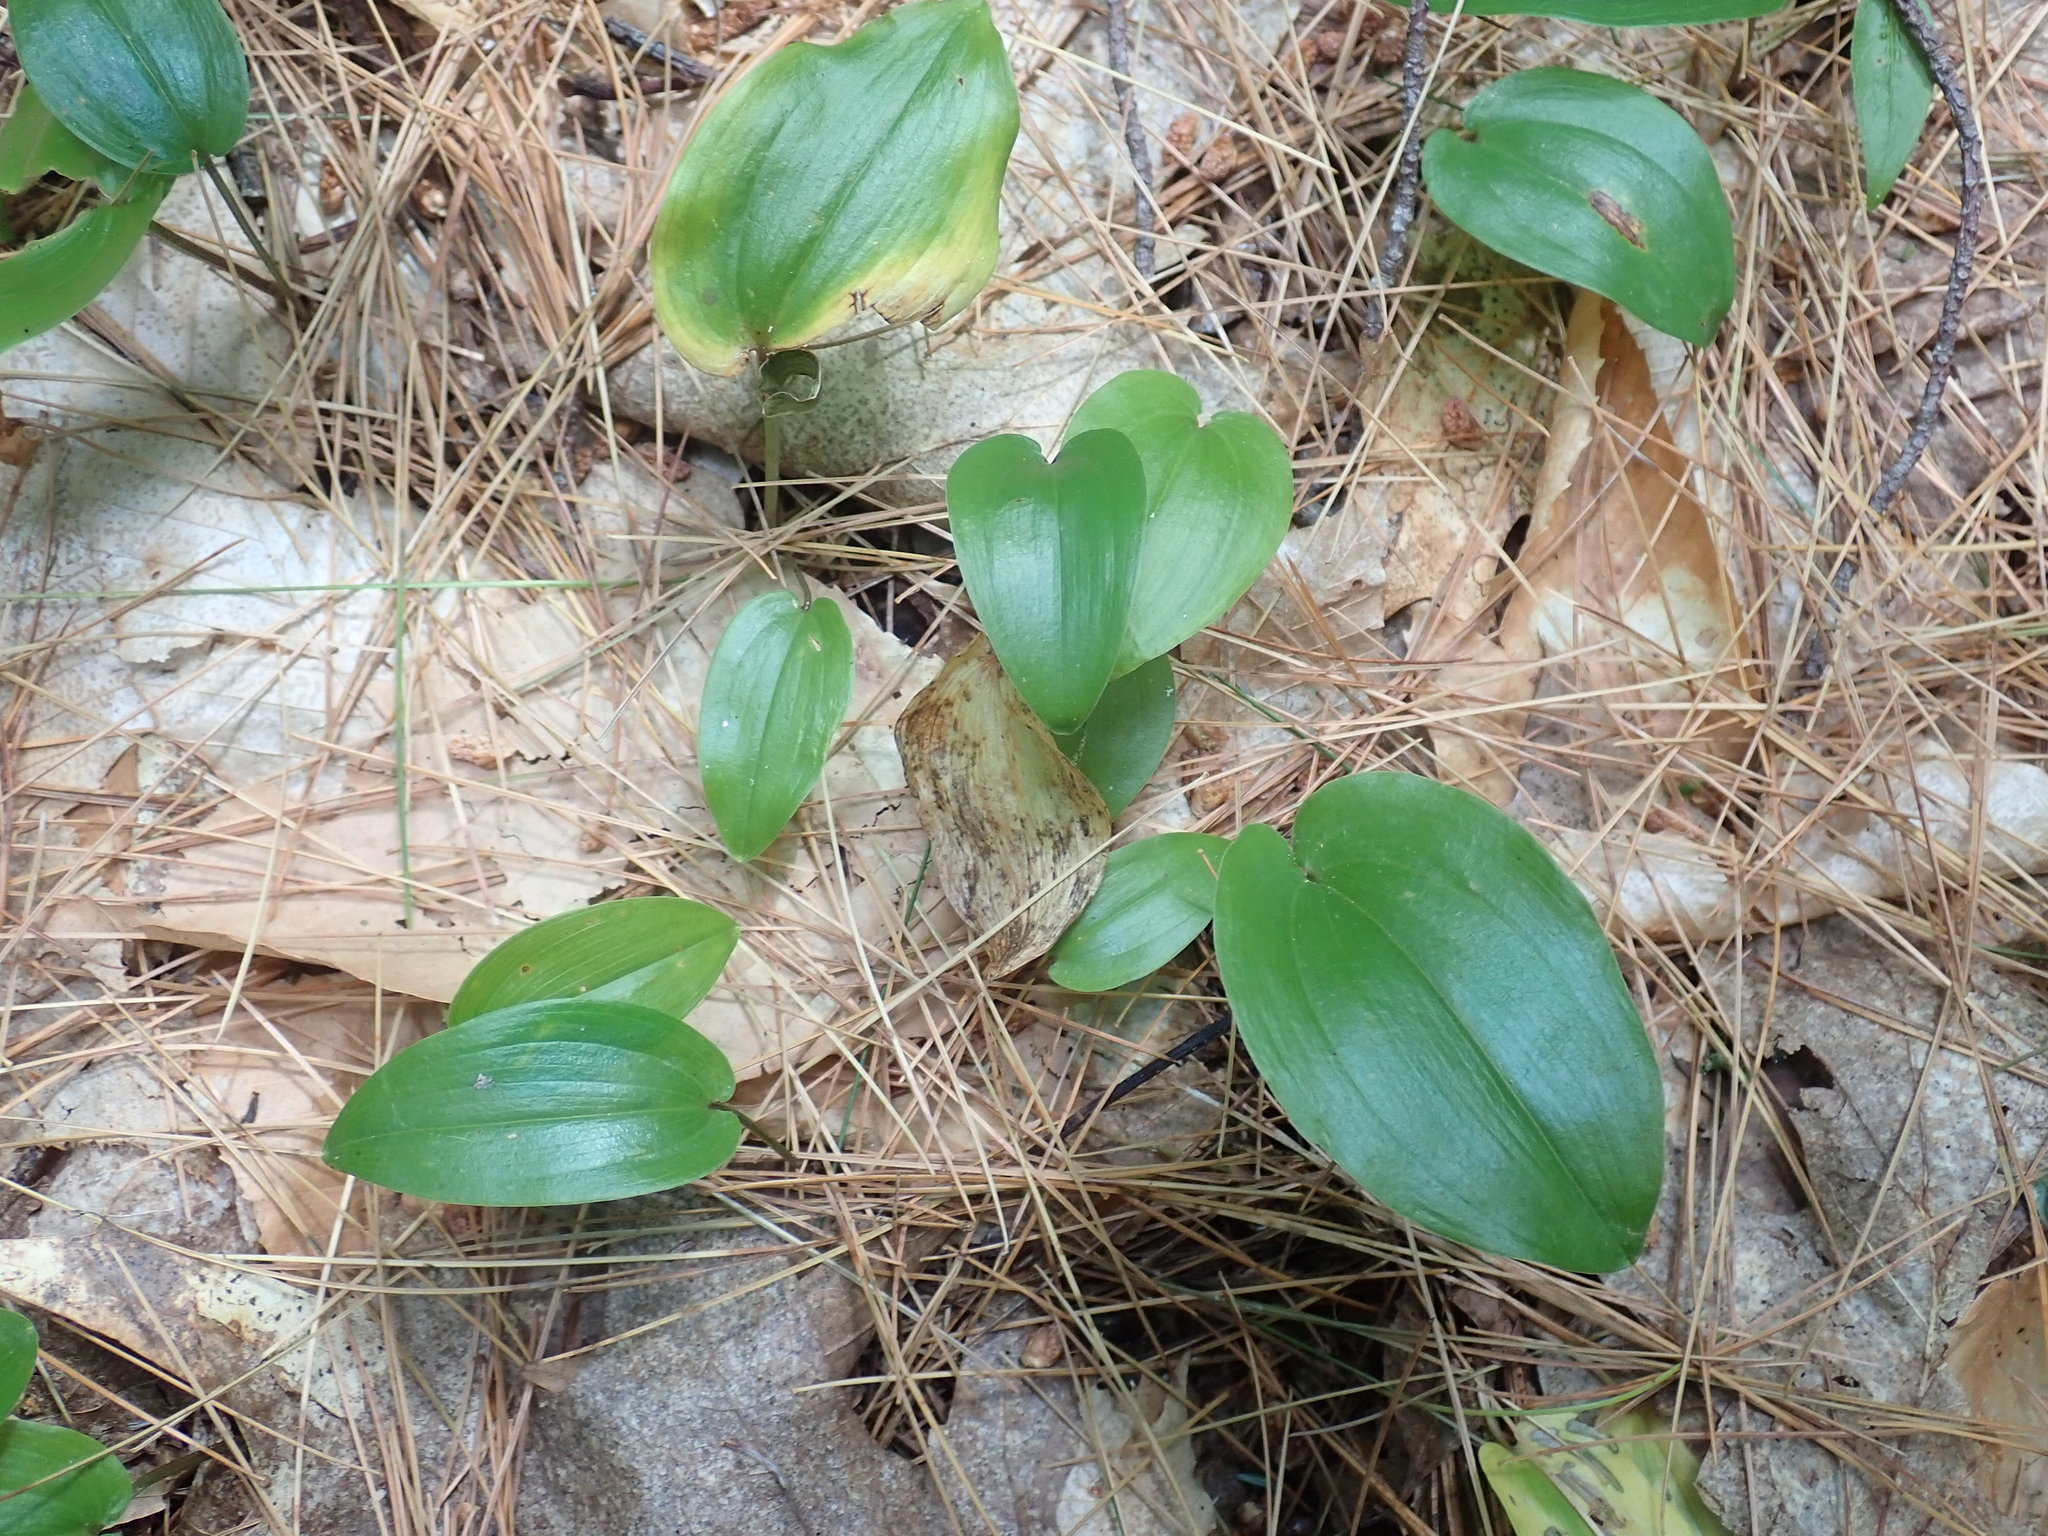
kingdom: Plantae
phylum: Tracheophyta
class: Liliopsida
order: Asparagales
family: Asparagaceae
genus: Maianthemum
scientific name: Maianthemum canadense
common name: False lily-of-the-valley
